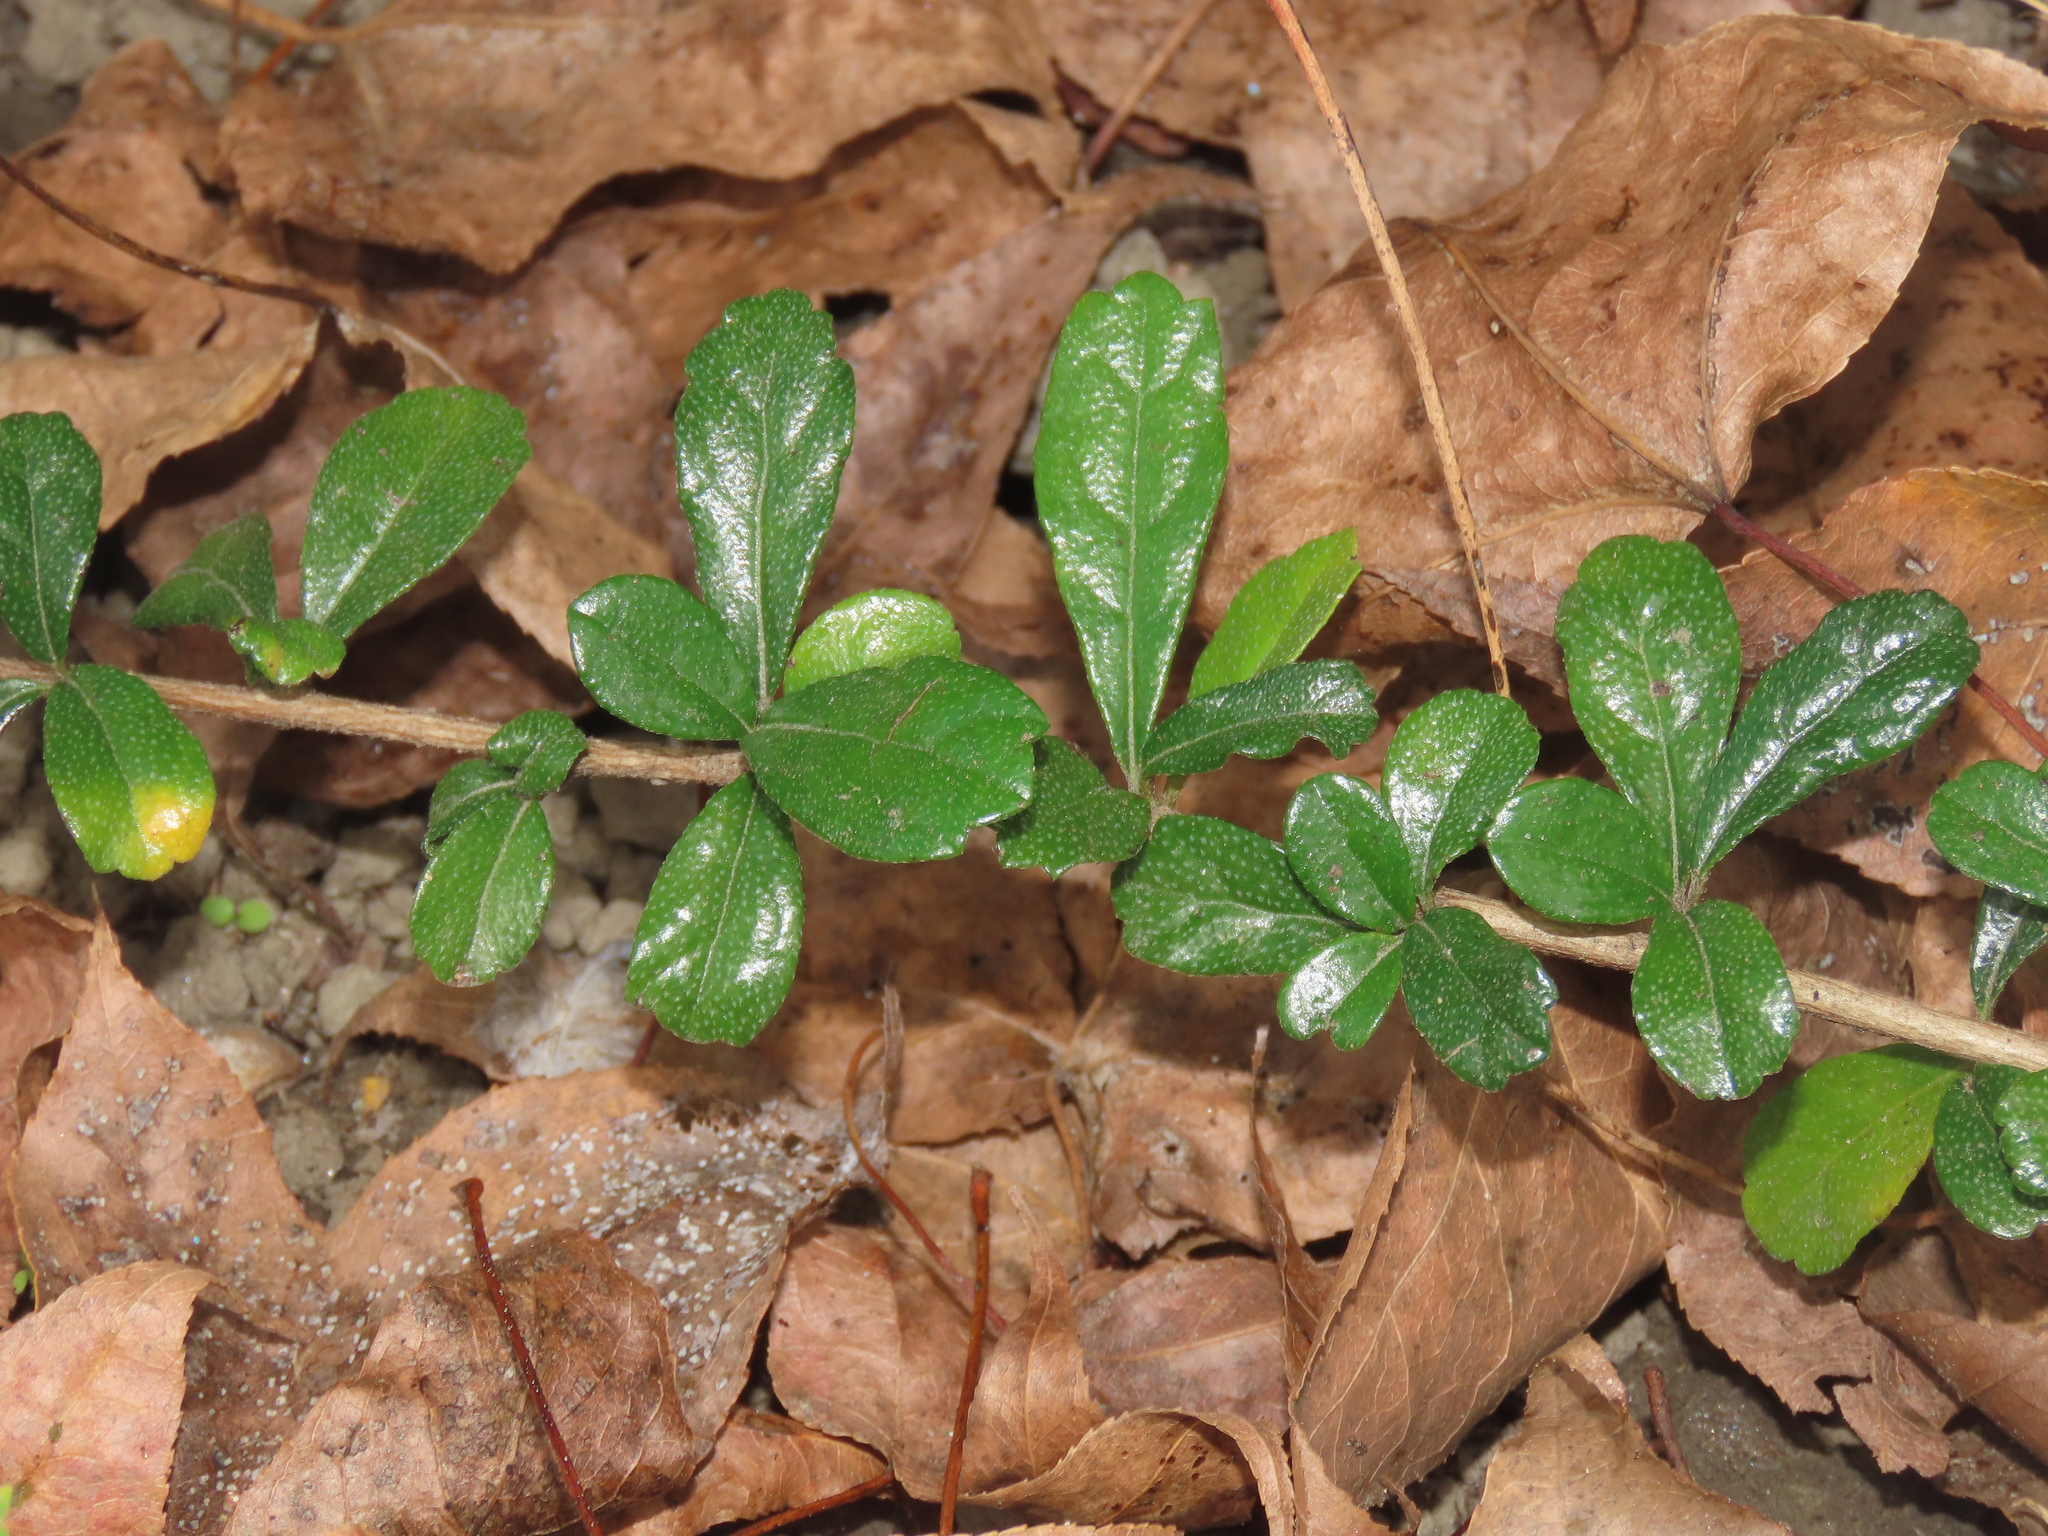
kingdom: Plantae
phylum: Tracheophyta
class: Magnoliopsida
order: Boraginales
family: Ehretiaceae
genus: Ehretia
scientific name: Ehretia microphylla
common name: Fukien-tea
